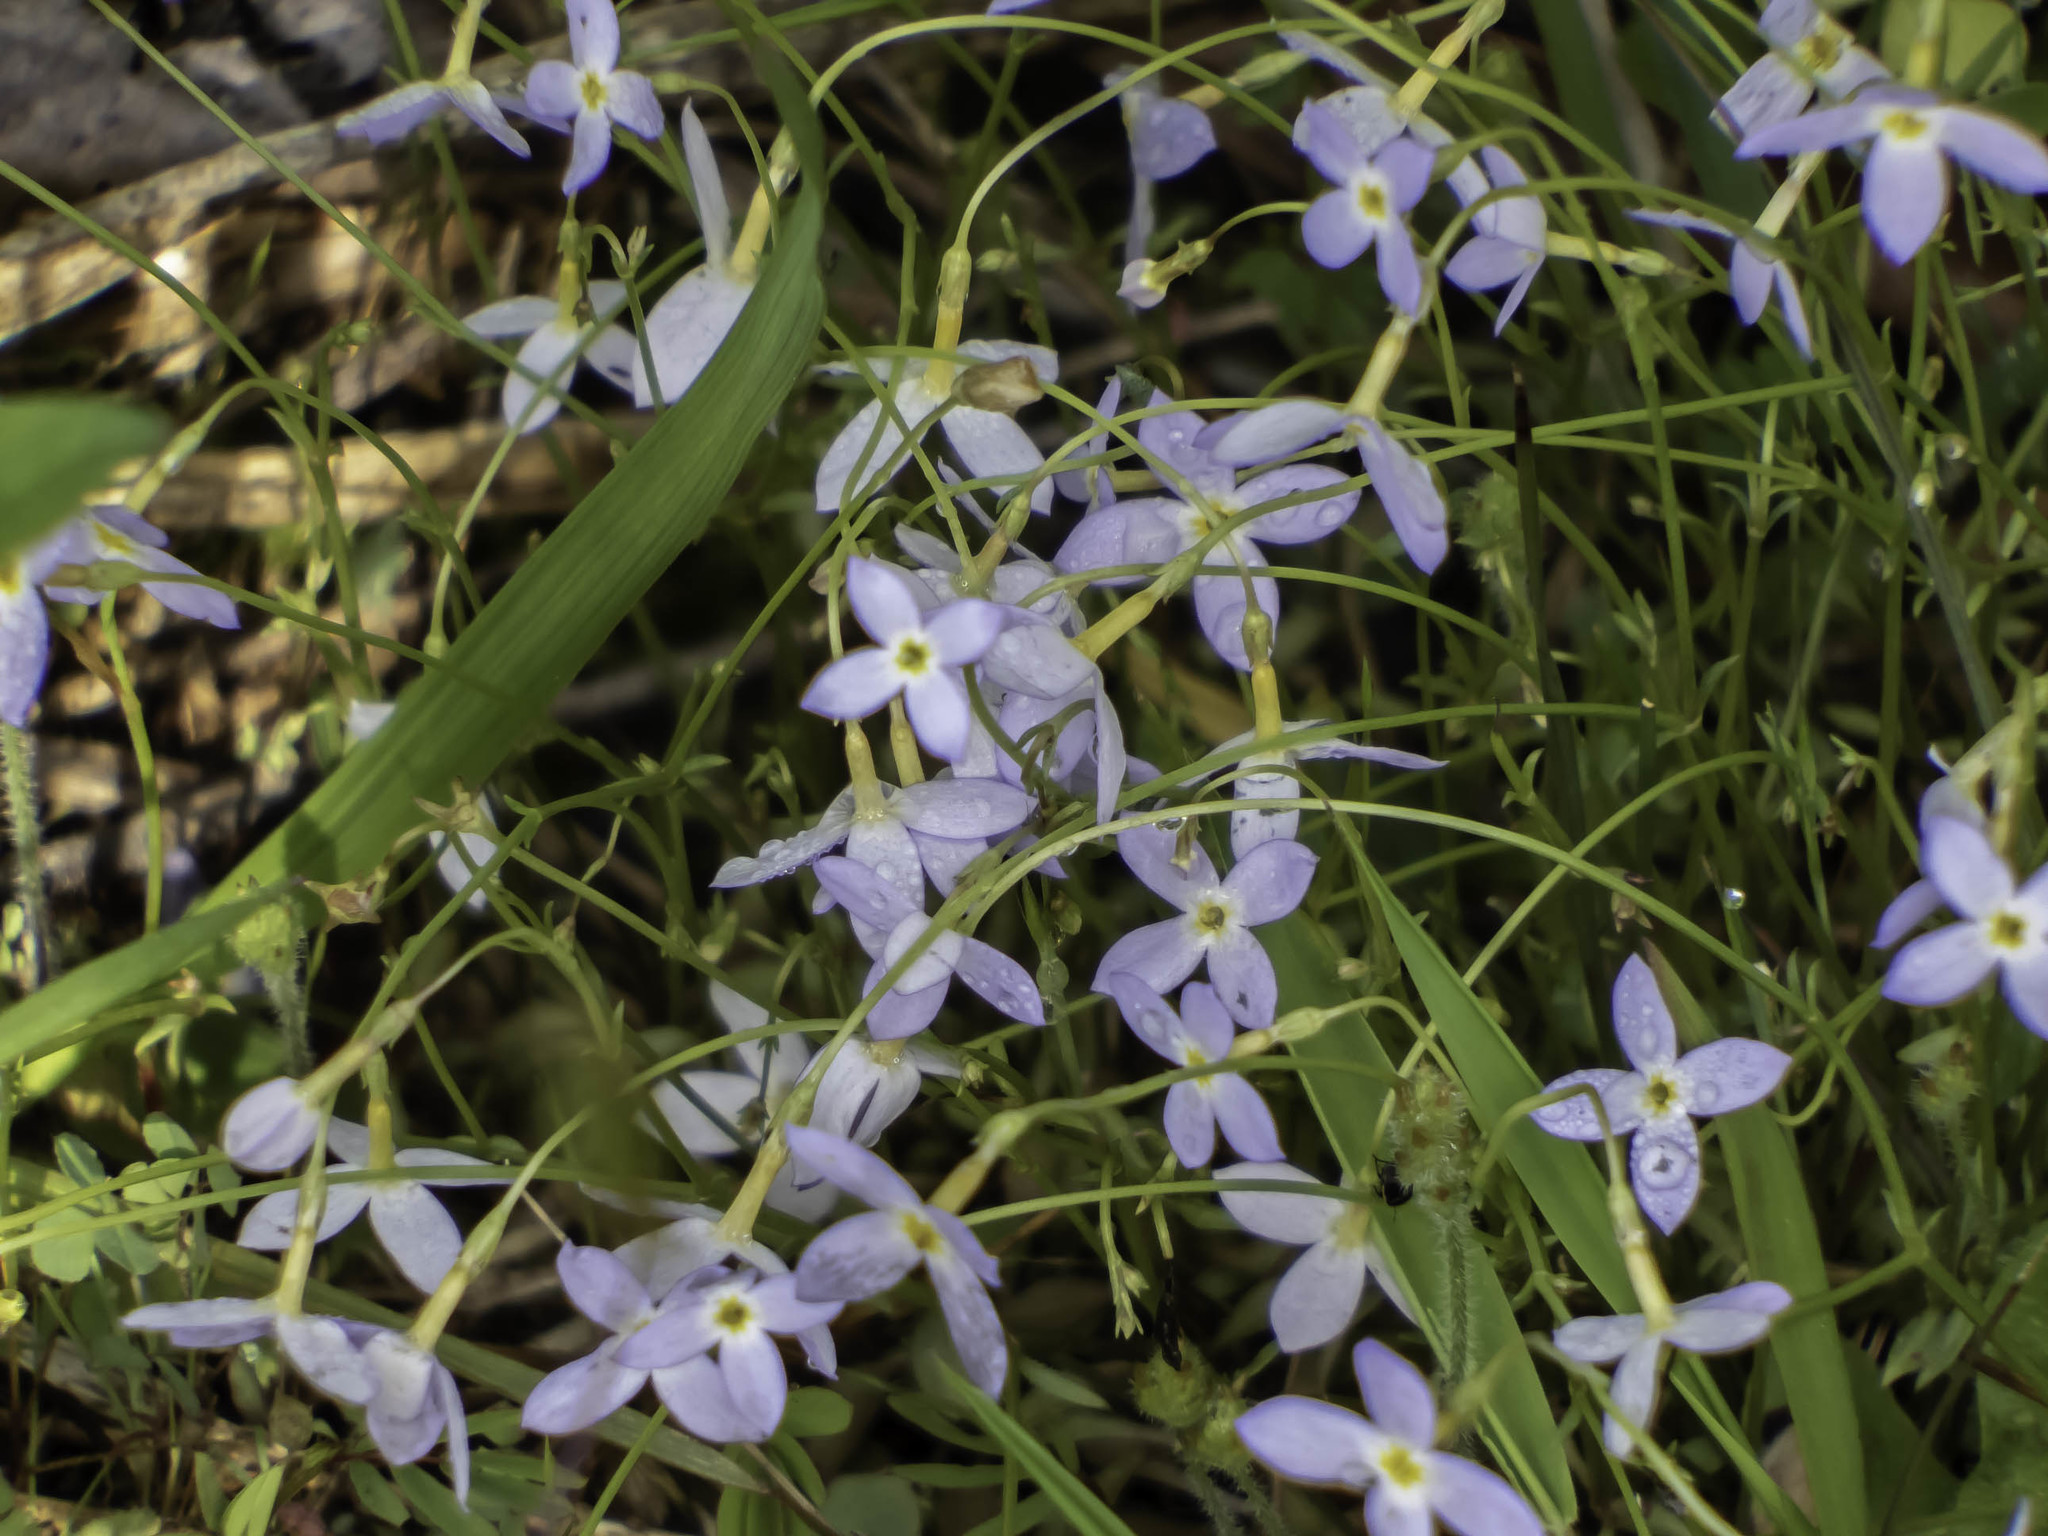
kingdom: Plantae
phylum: Tracheophyta
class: Magnoliopsida
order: Gentianales
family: Rubiaceae
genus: Houstonia
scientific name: Houstonia caerulea
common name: Bluets
